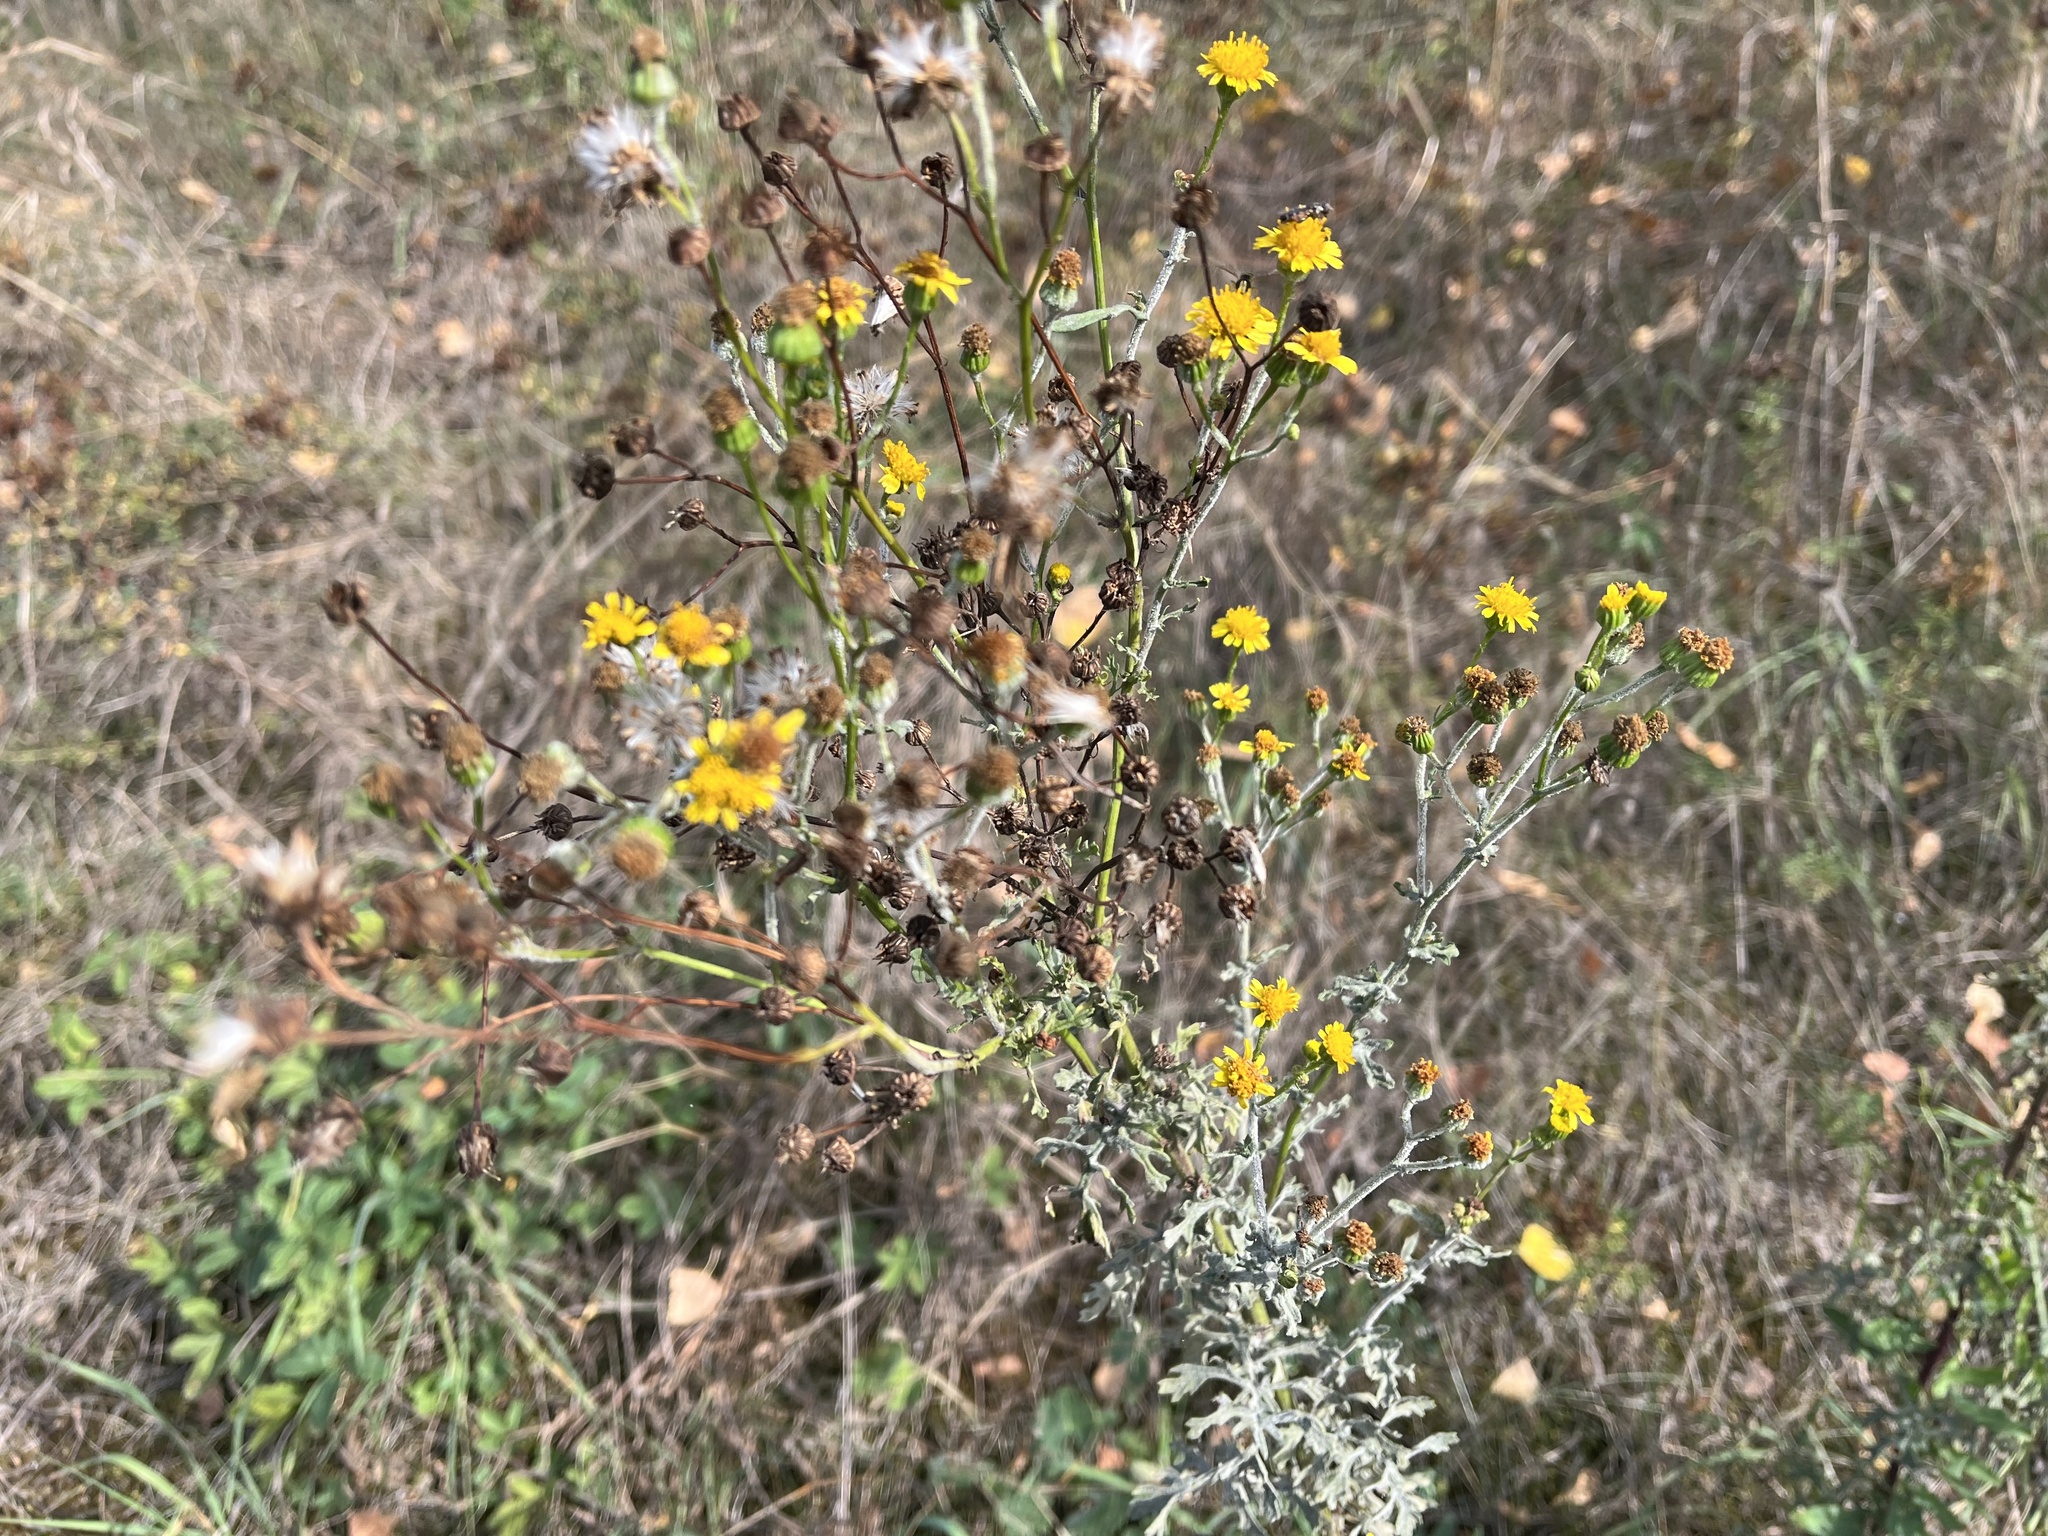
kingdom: Plantae
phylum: Tracheophyta
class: Magnoliopsida
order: Asterales
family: Asteraceae
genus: Jacobaea
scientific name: Jacobaea vulgaris
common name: Stinking willie
